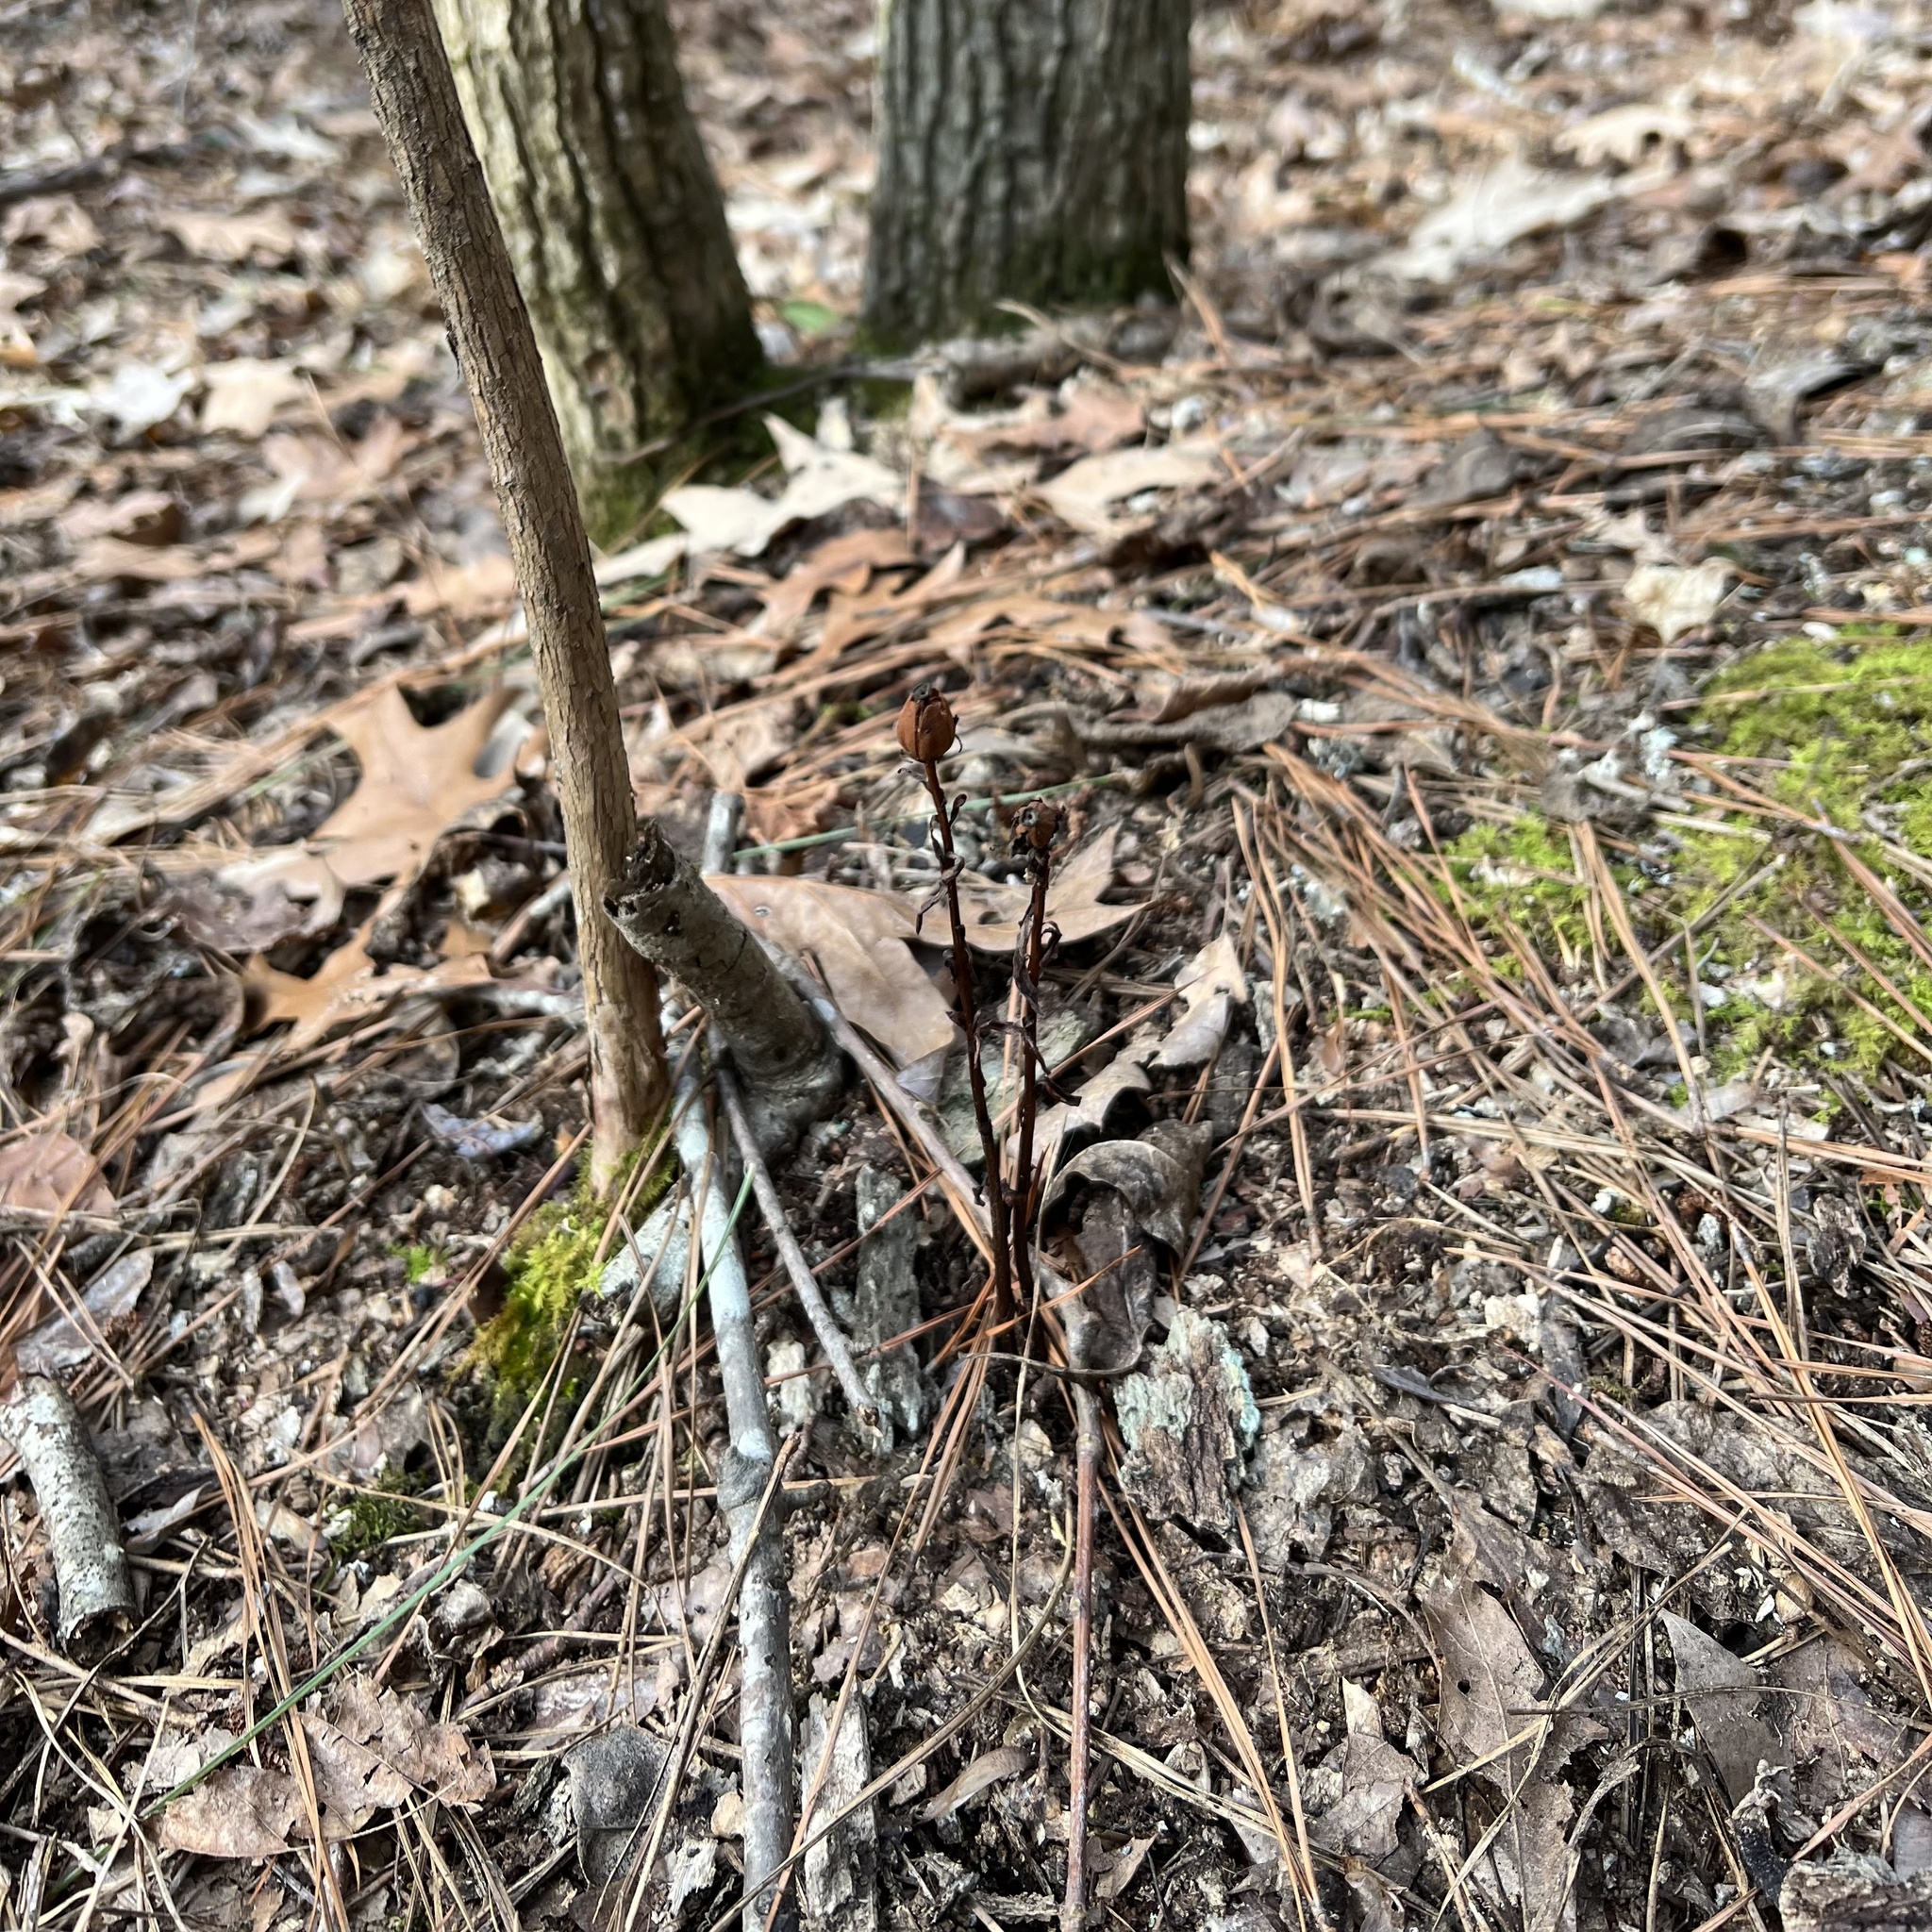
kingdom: Plantae
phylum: Tracheophyta
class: Magnoliopsida
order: Ericales
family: Ericaceae
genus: Monotropa
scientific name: Monotropa uniflora
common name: Convulsion root
